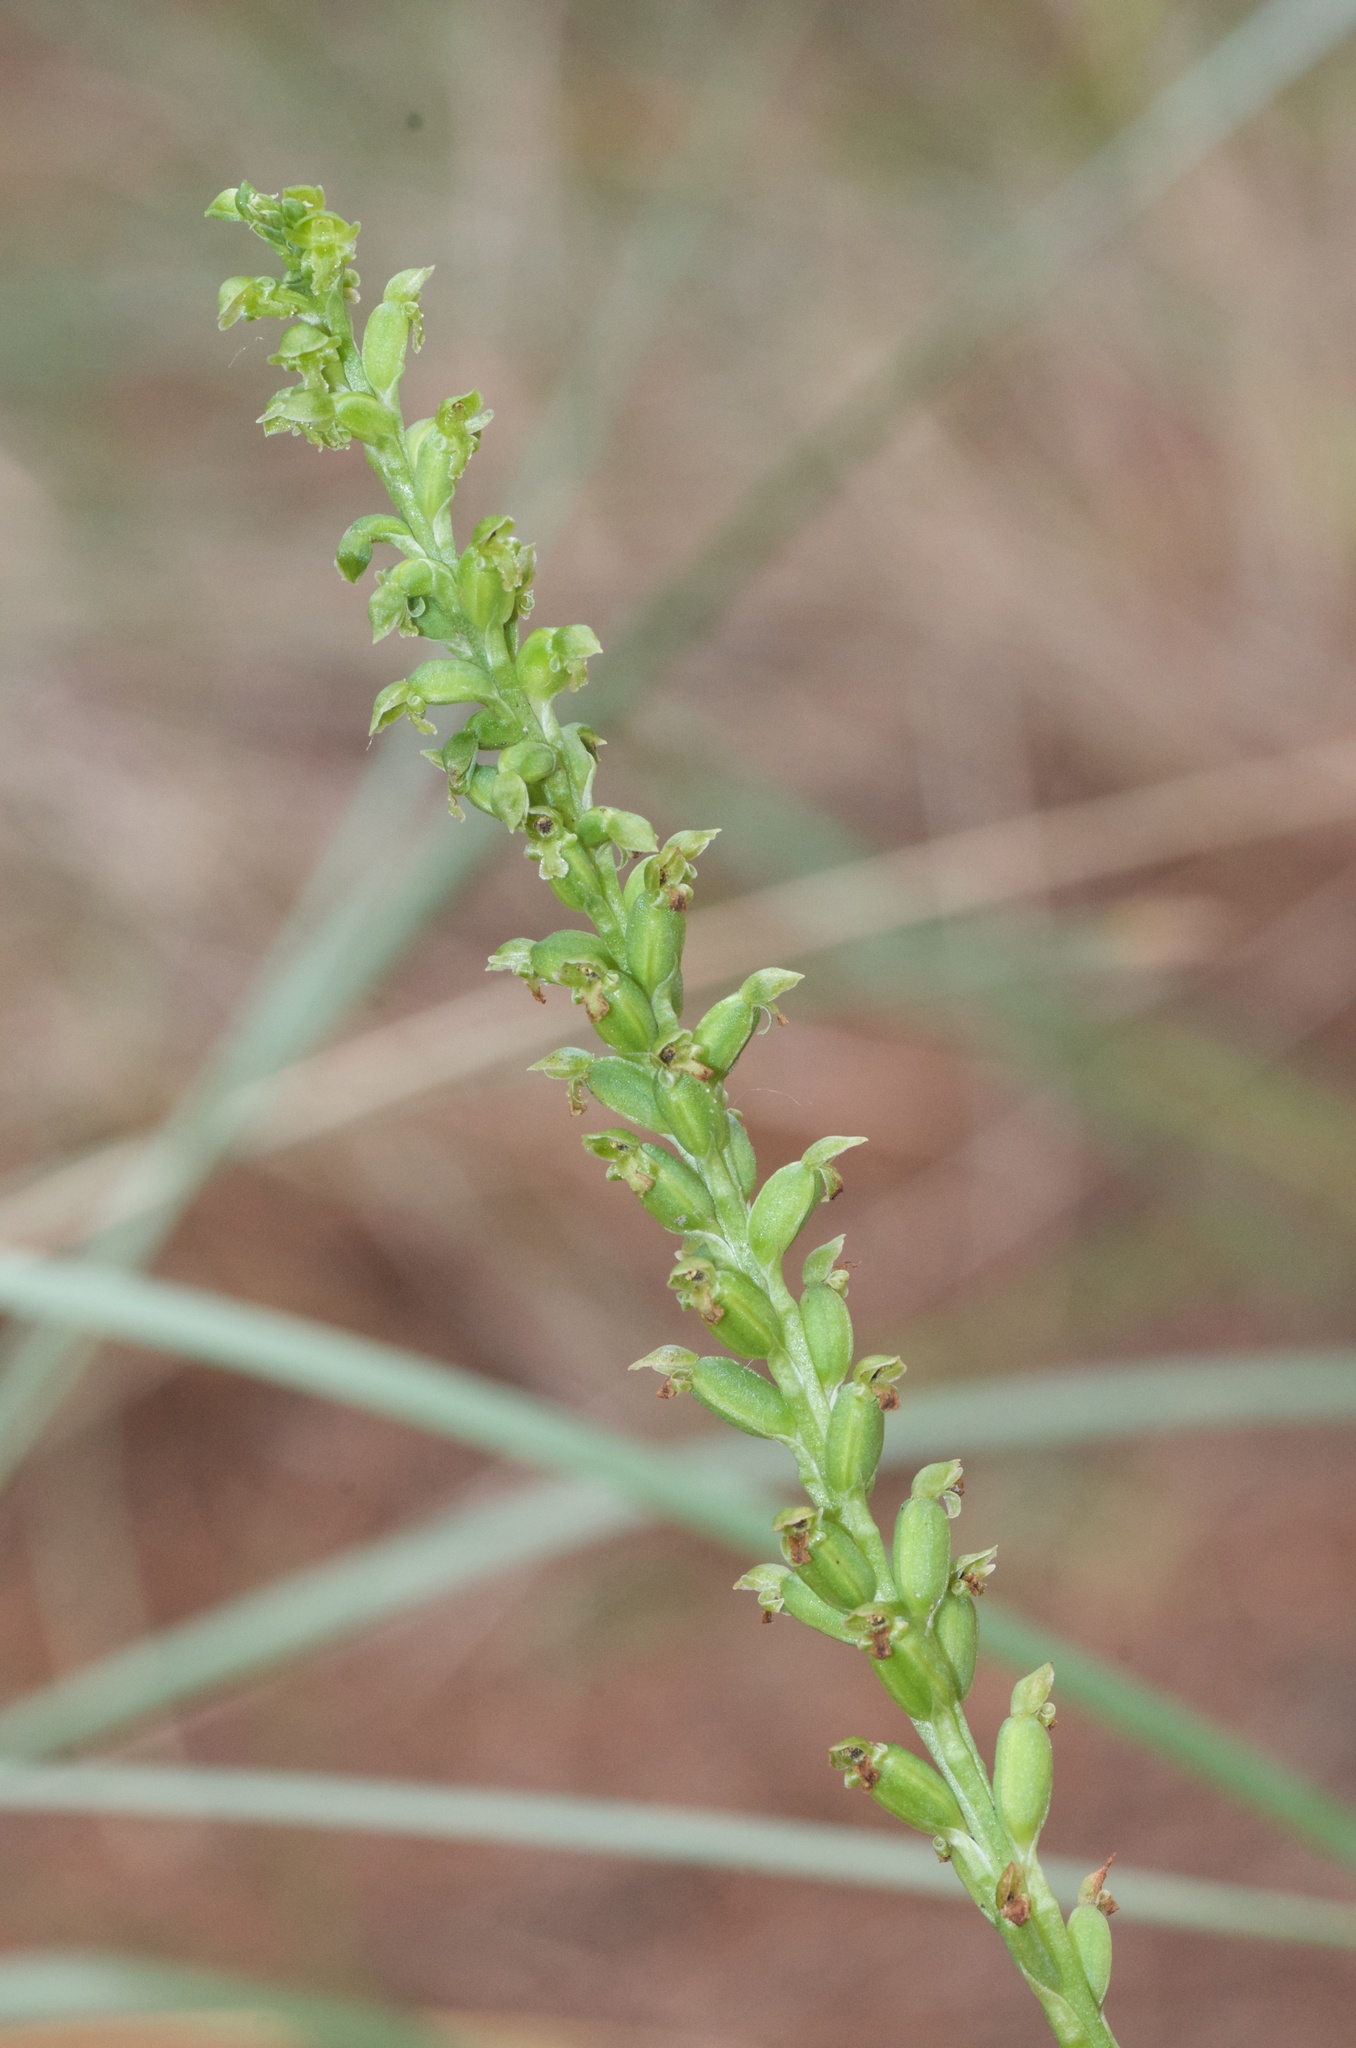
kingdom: Plantae
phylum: Tracheophyta
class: Liliopsida
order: Asparagales
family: Orchidaceae
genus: Microtis
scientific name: Microtis unifolia
